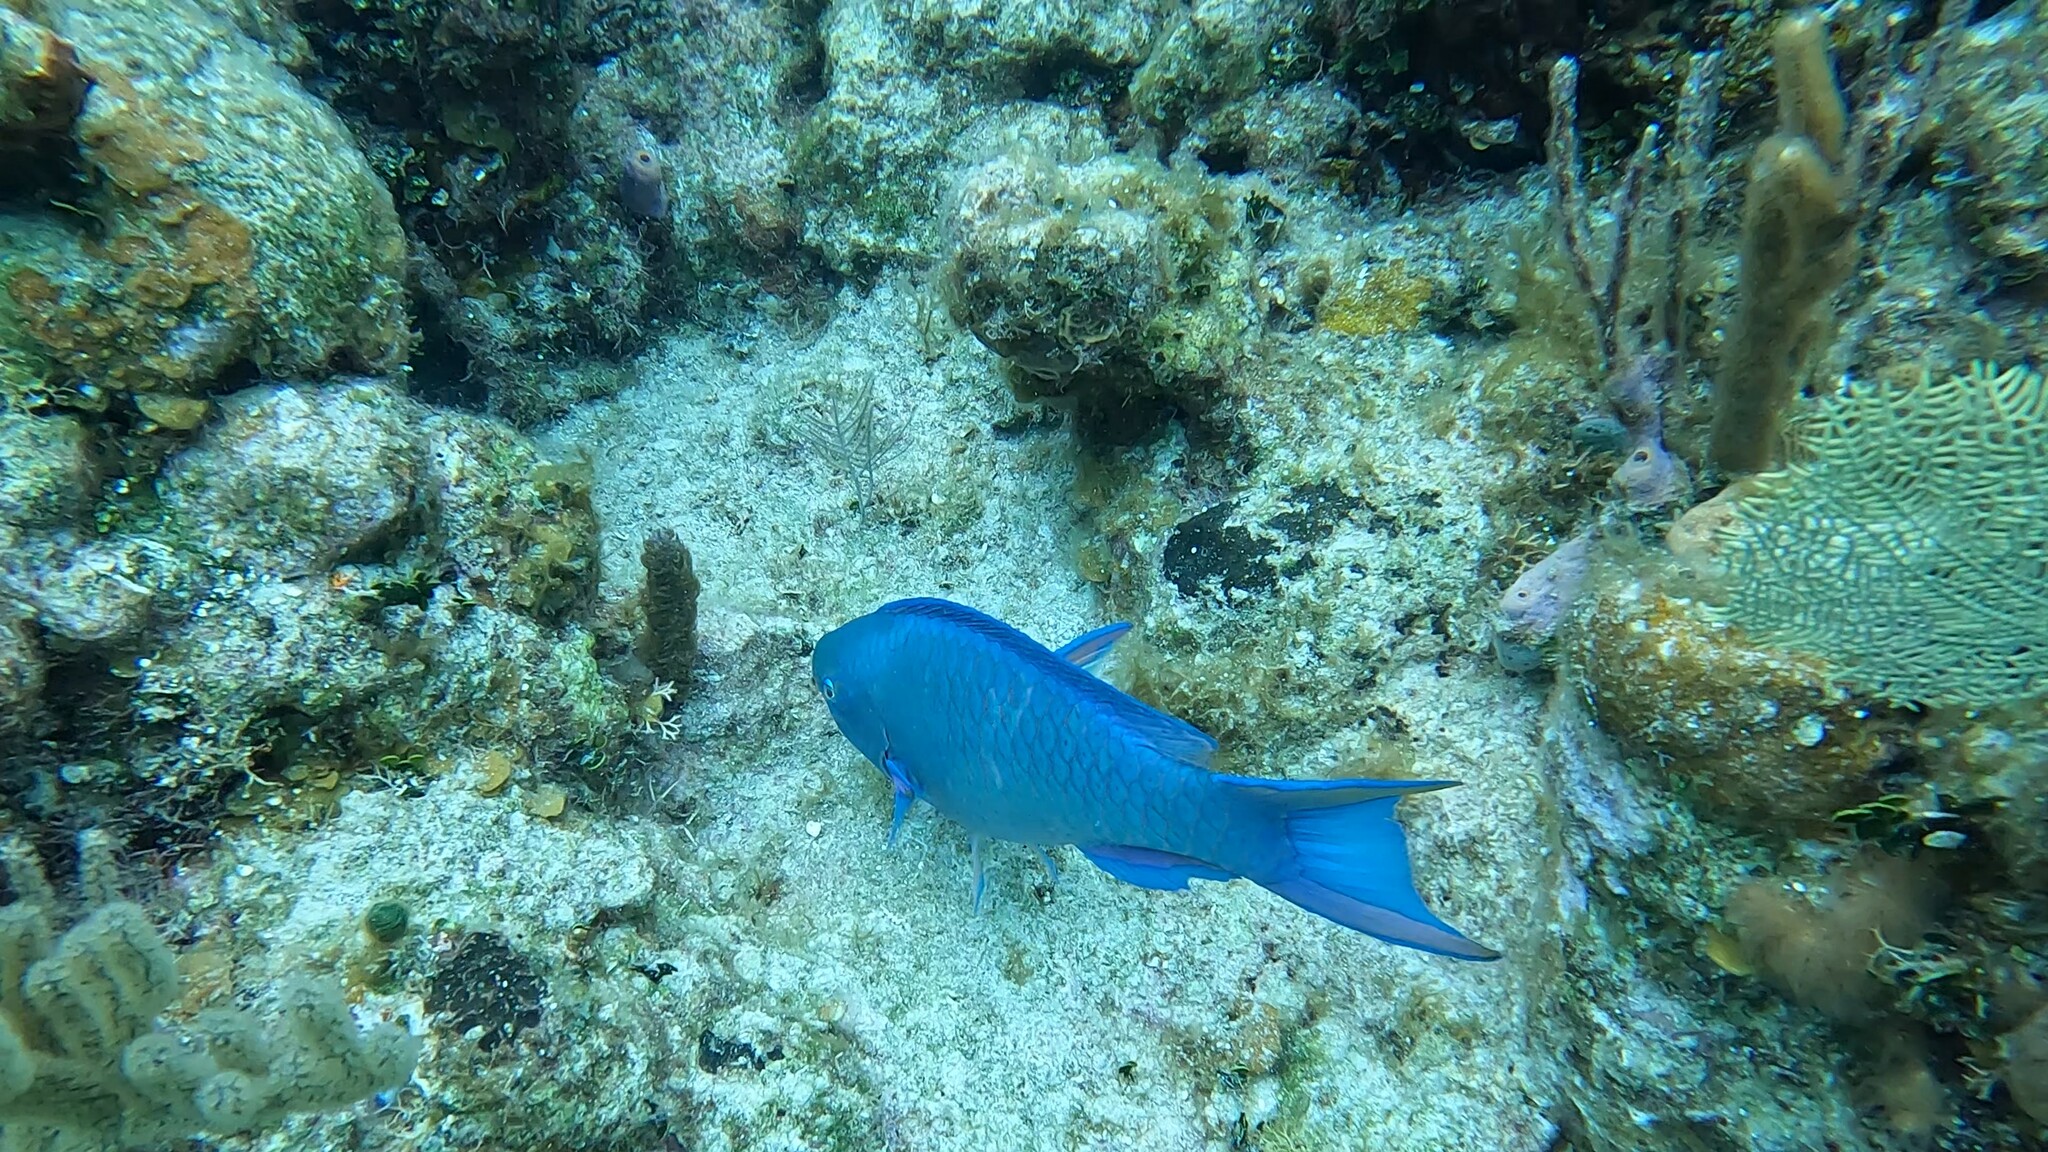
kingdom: Animalia
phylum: Chordata
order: Perciformes
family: Scaridae
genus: Scarus
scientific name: Scarus coeruleus
